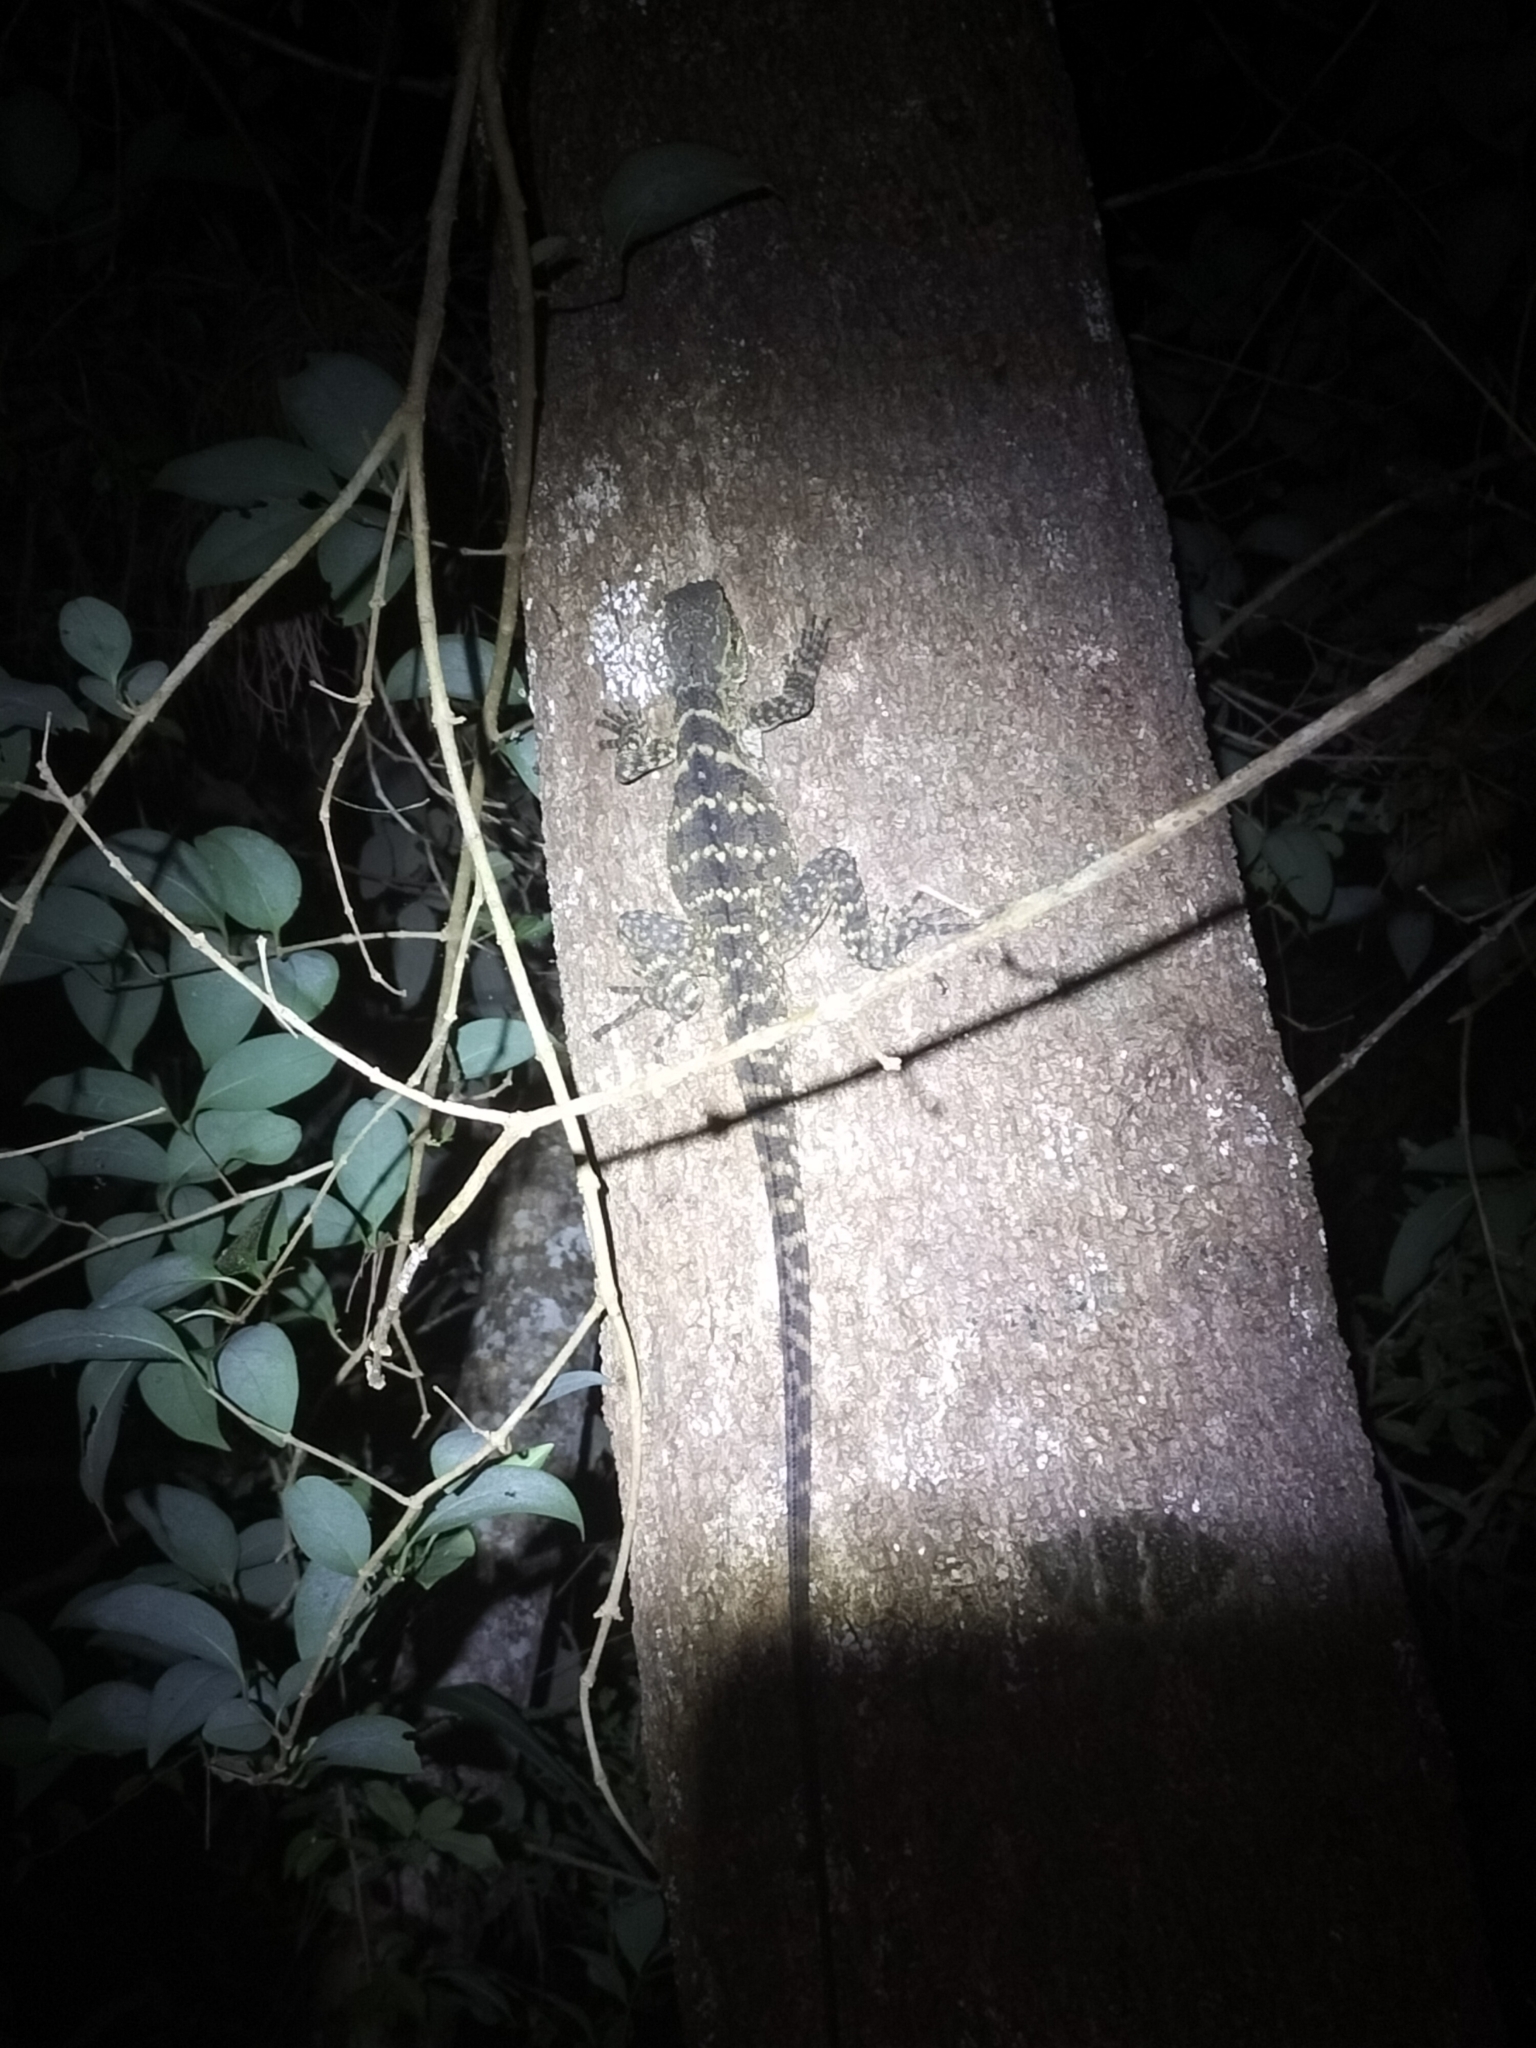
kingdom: Animalia
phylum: Chordata
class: Squamata
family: Agamidae
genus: Intellagama
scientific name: Intellagama lesueurii
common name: Eastern water dragon
